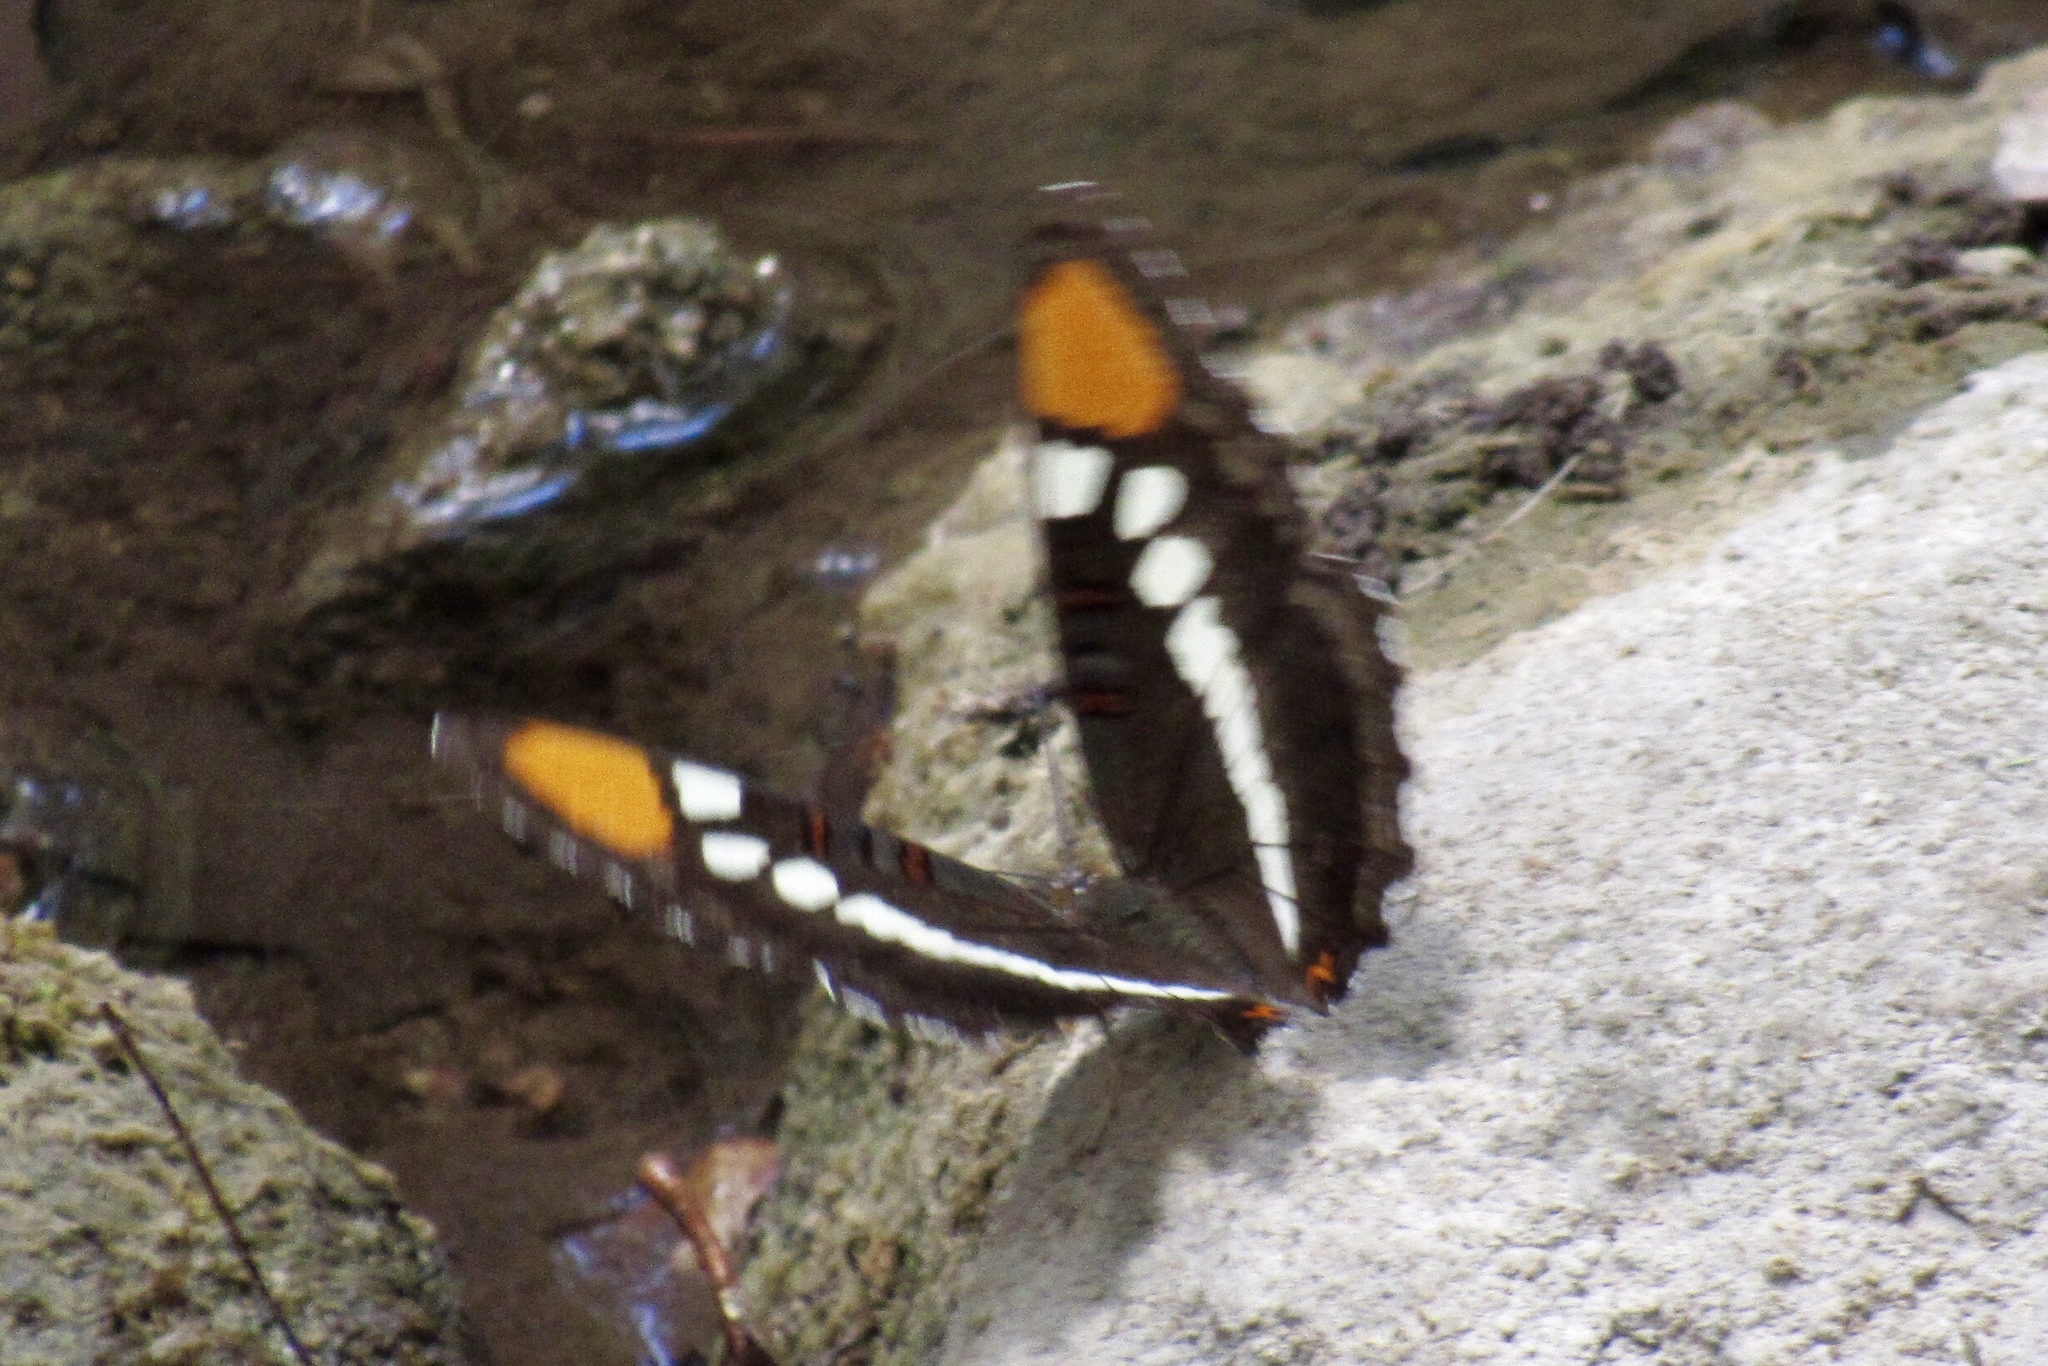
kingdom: Animalia
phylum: Arthropoda
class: Insecta
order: Lepidoptera
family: Nymphalidae
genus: Limenitis
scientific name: Limenitis bredowii
